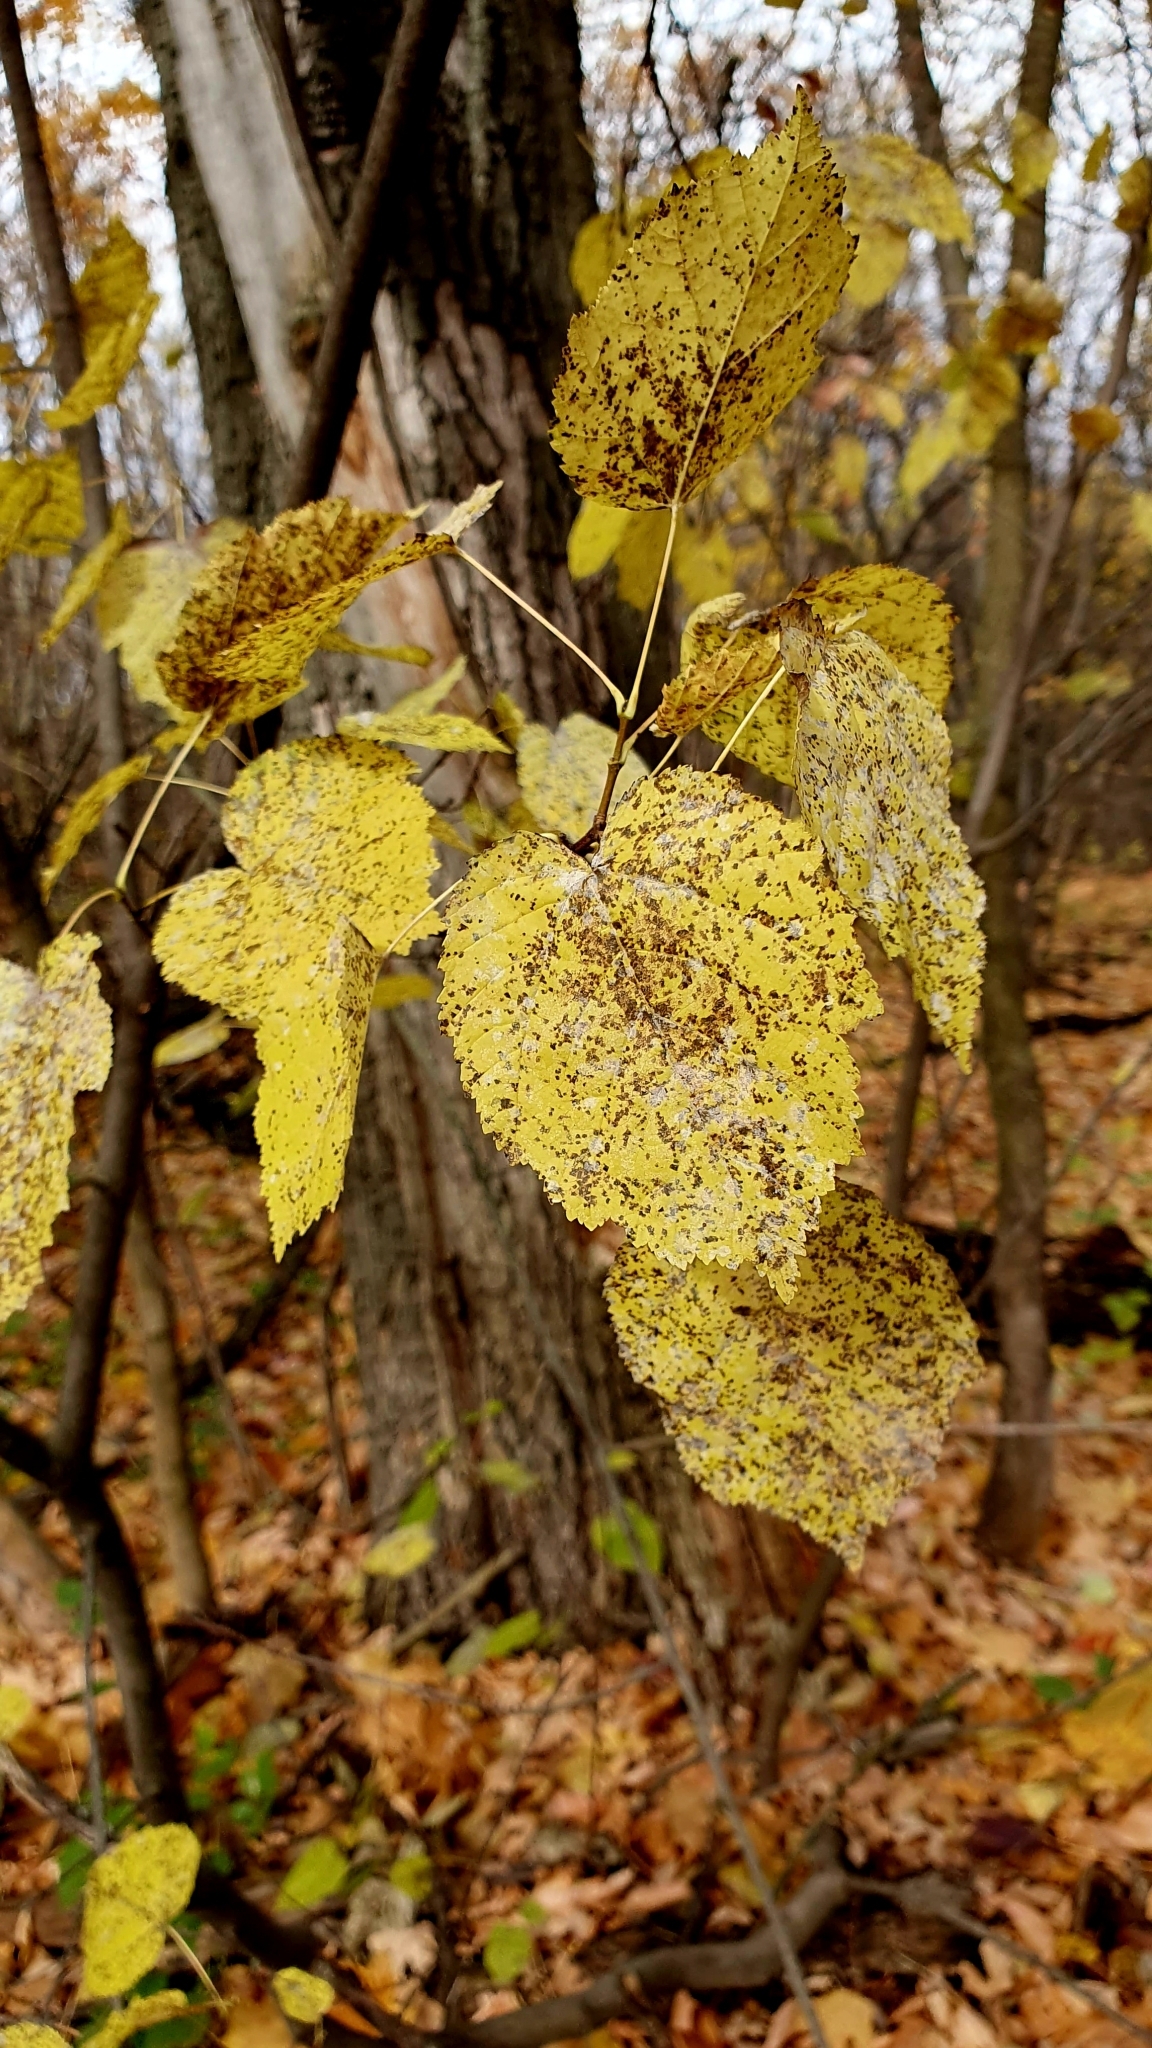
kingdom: Plantae
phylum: Tracheophyta
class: Magnoliopsida
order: Sapindales
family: Sapindaceae
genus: Acer
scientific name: Acer tataricum
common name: Tartar maple
